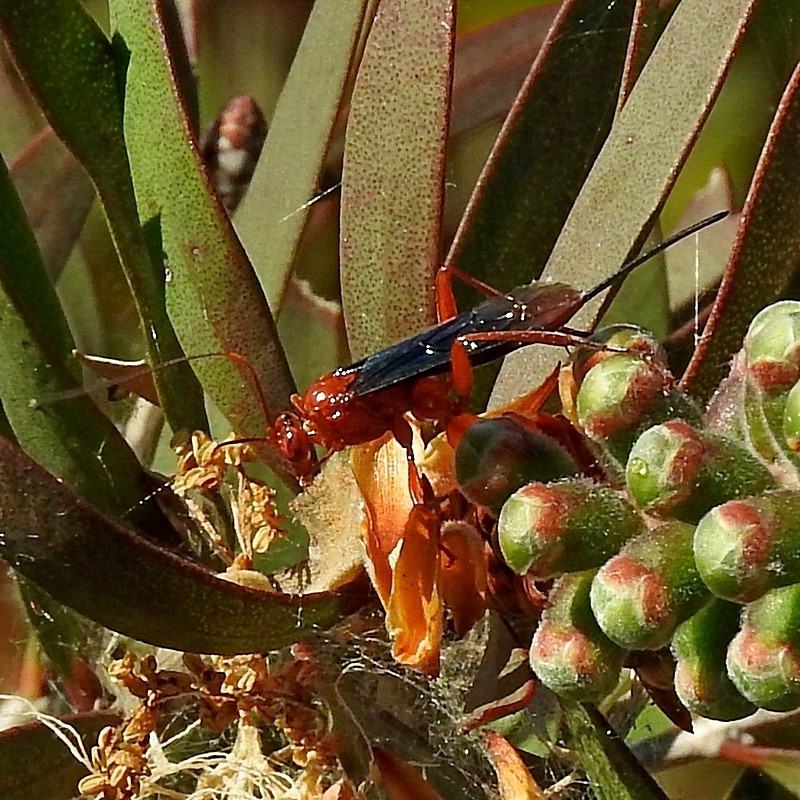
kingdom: Animalia
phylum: Arthropoda
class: Insecta
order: Hymenoptera
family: Ichneumonidae
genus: Lissopimpla
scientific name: Lissopimpla excelsa
